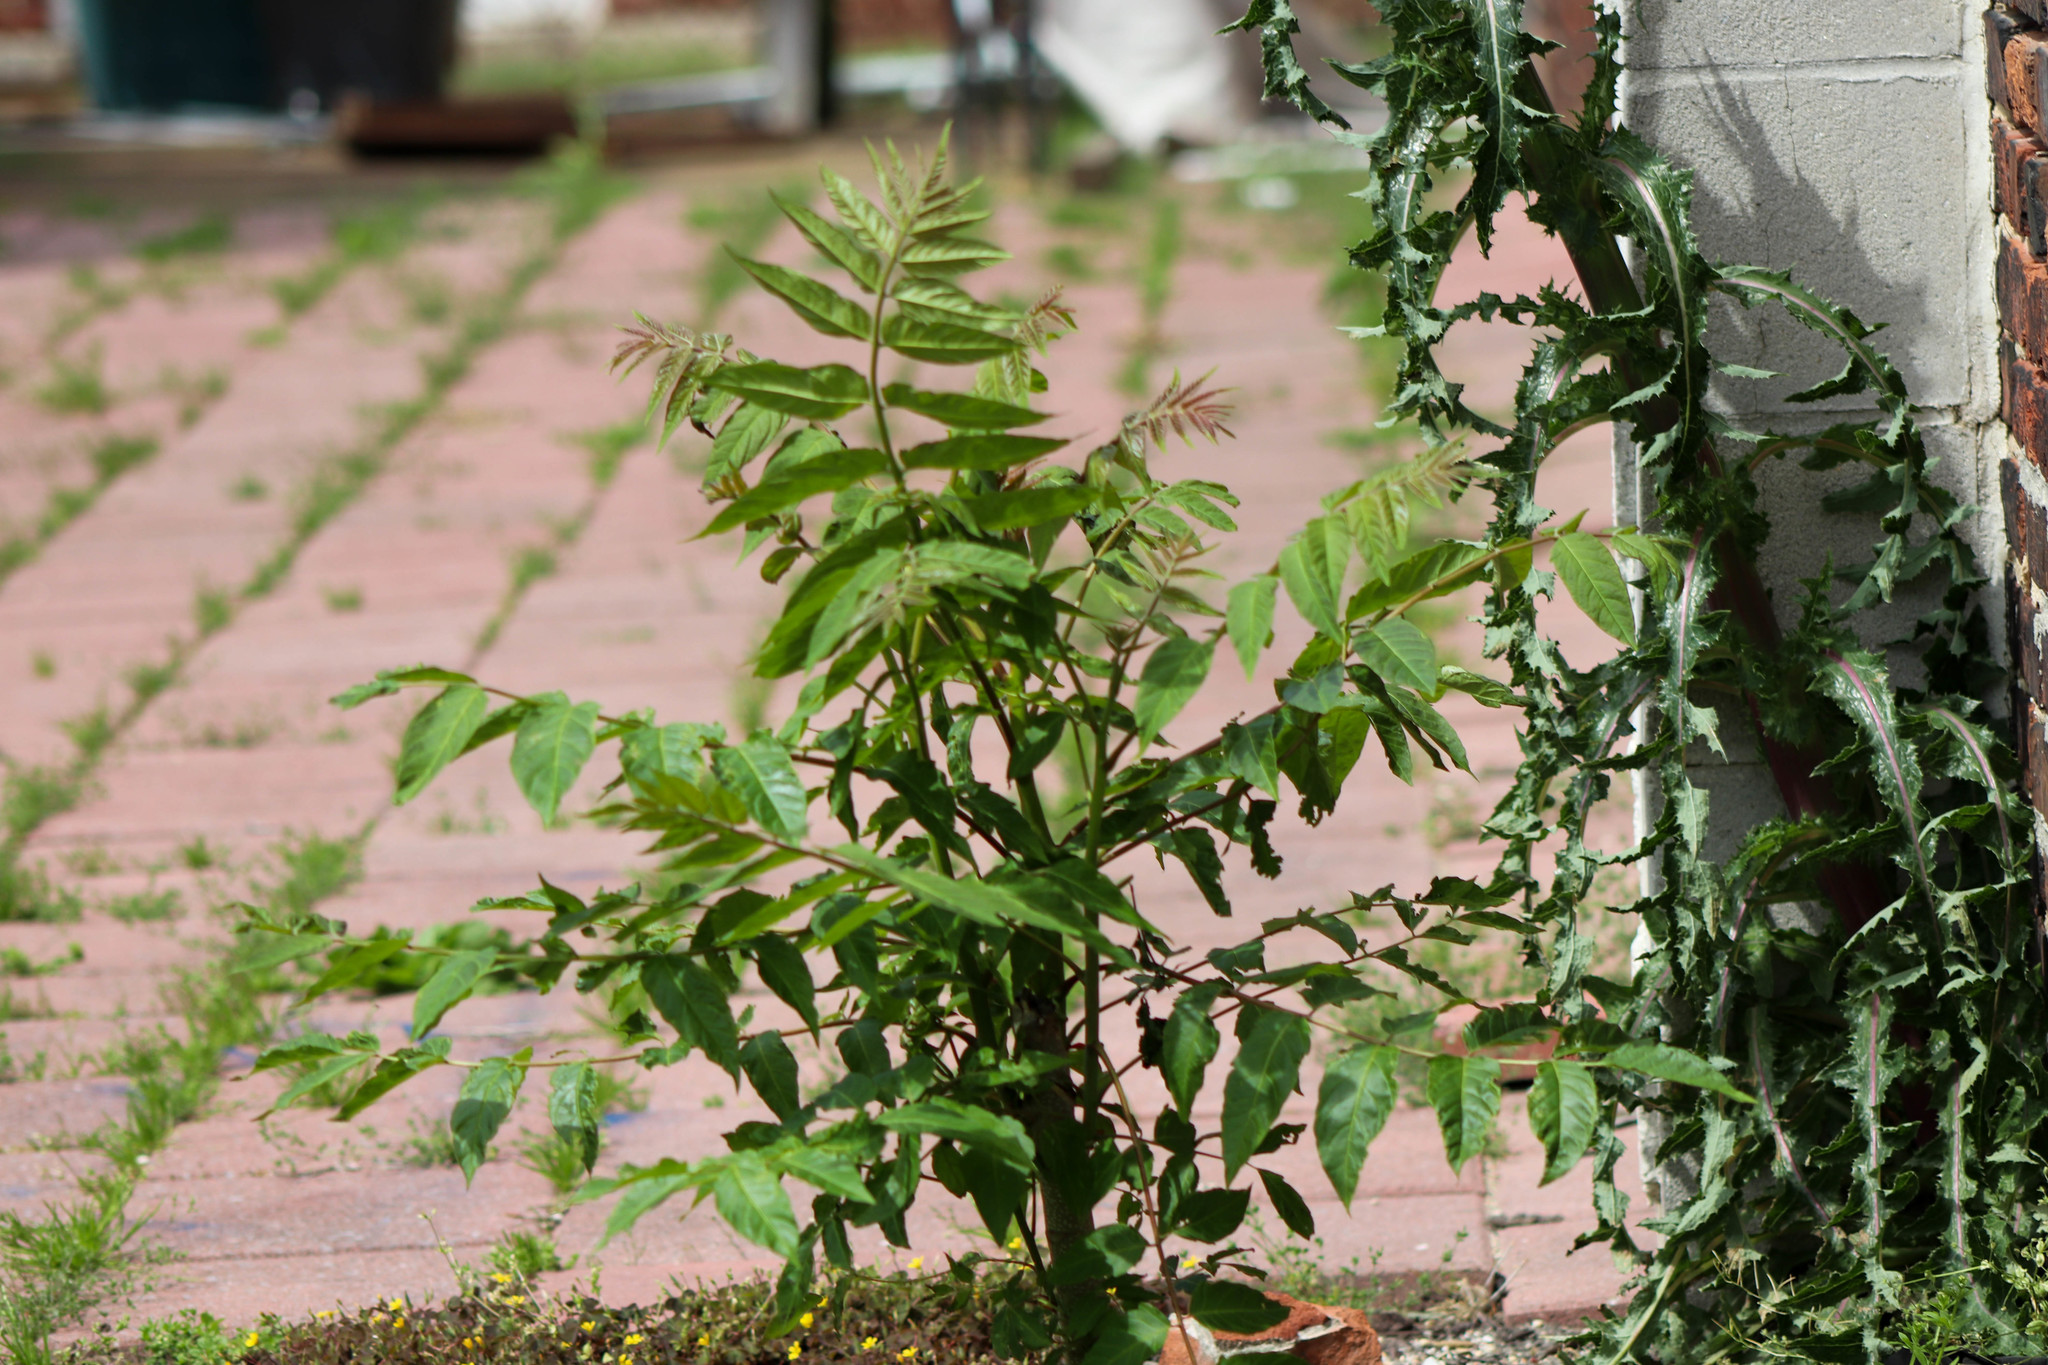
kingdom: Plantae
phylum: Tracheophyta
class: Magnoliopsida
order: Sapindales
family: Simaroubaceae
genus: Ailanthus
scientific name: Ailanthus altissima
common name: Tree-of-heaven
